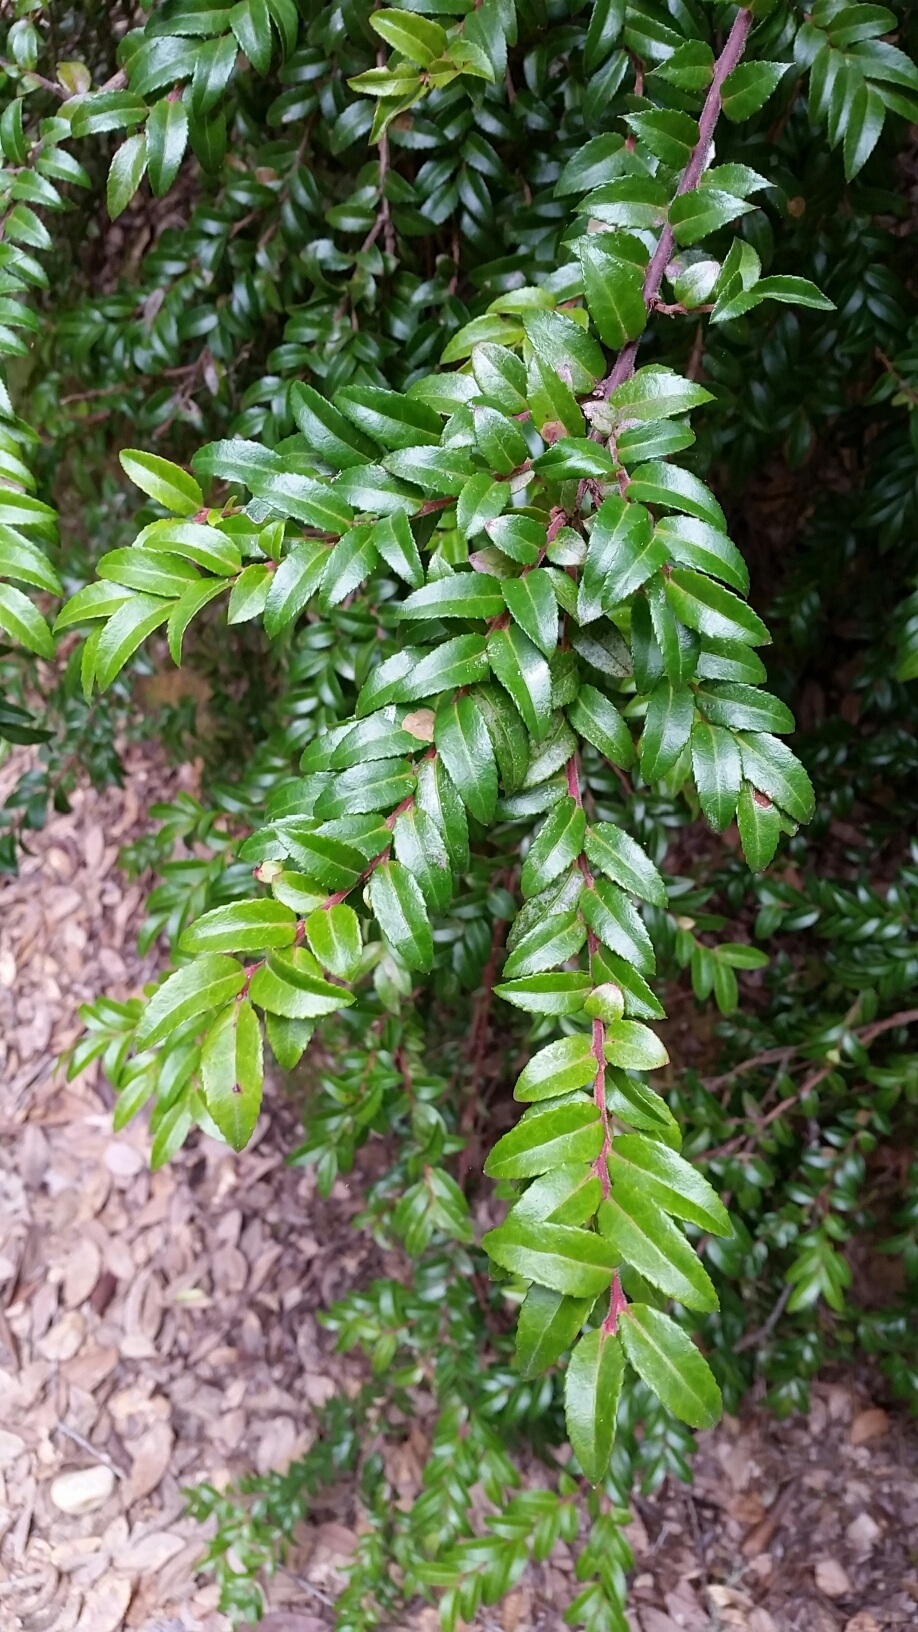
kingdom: Plantae
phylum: Tracheophyta
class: Magnoliopsida
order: Ericales
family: Ericaceae
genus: Vaccinium
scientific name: Vaccinium ovatum
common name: California-huckleberry
